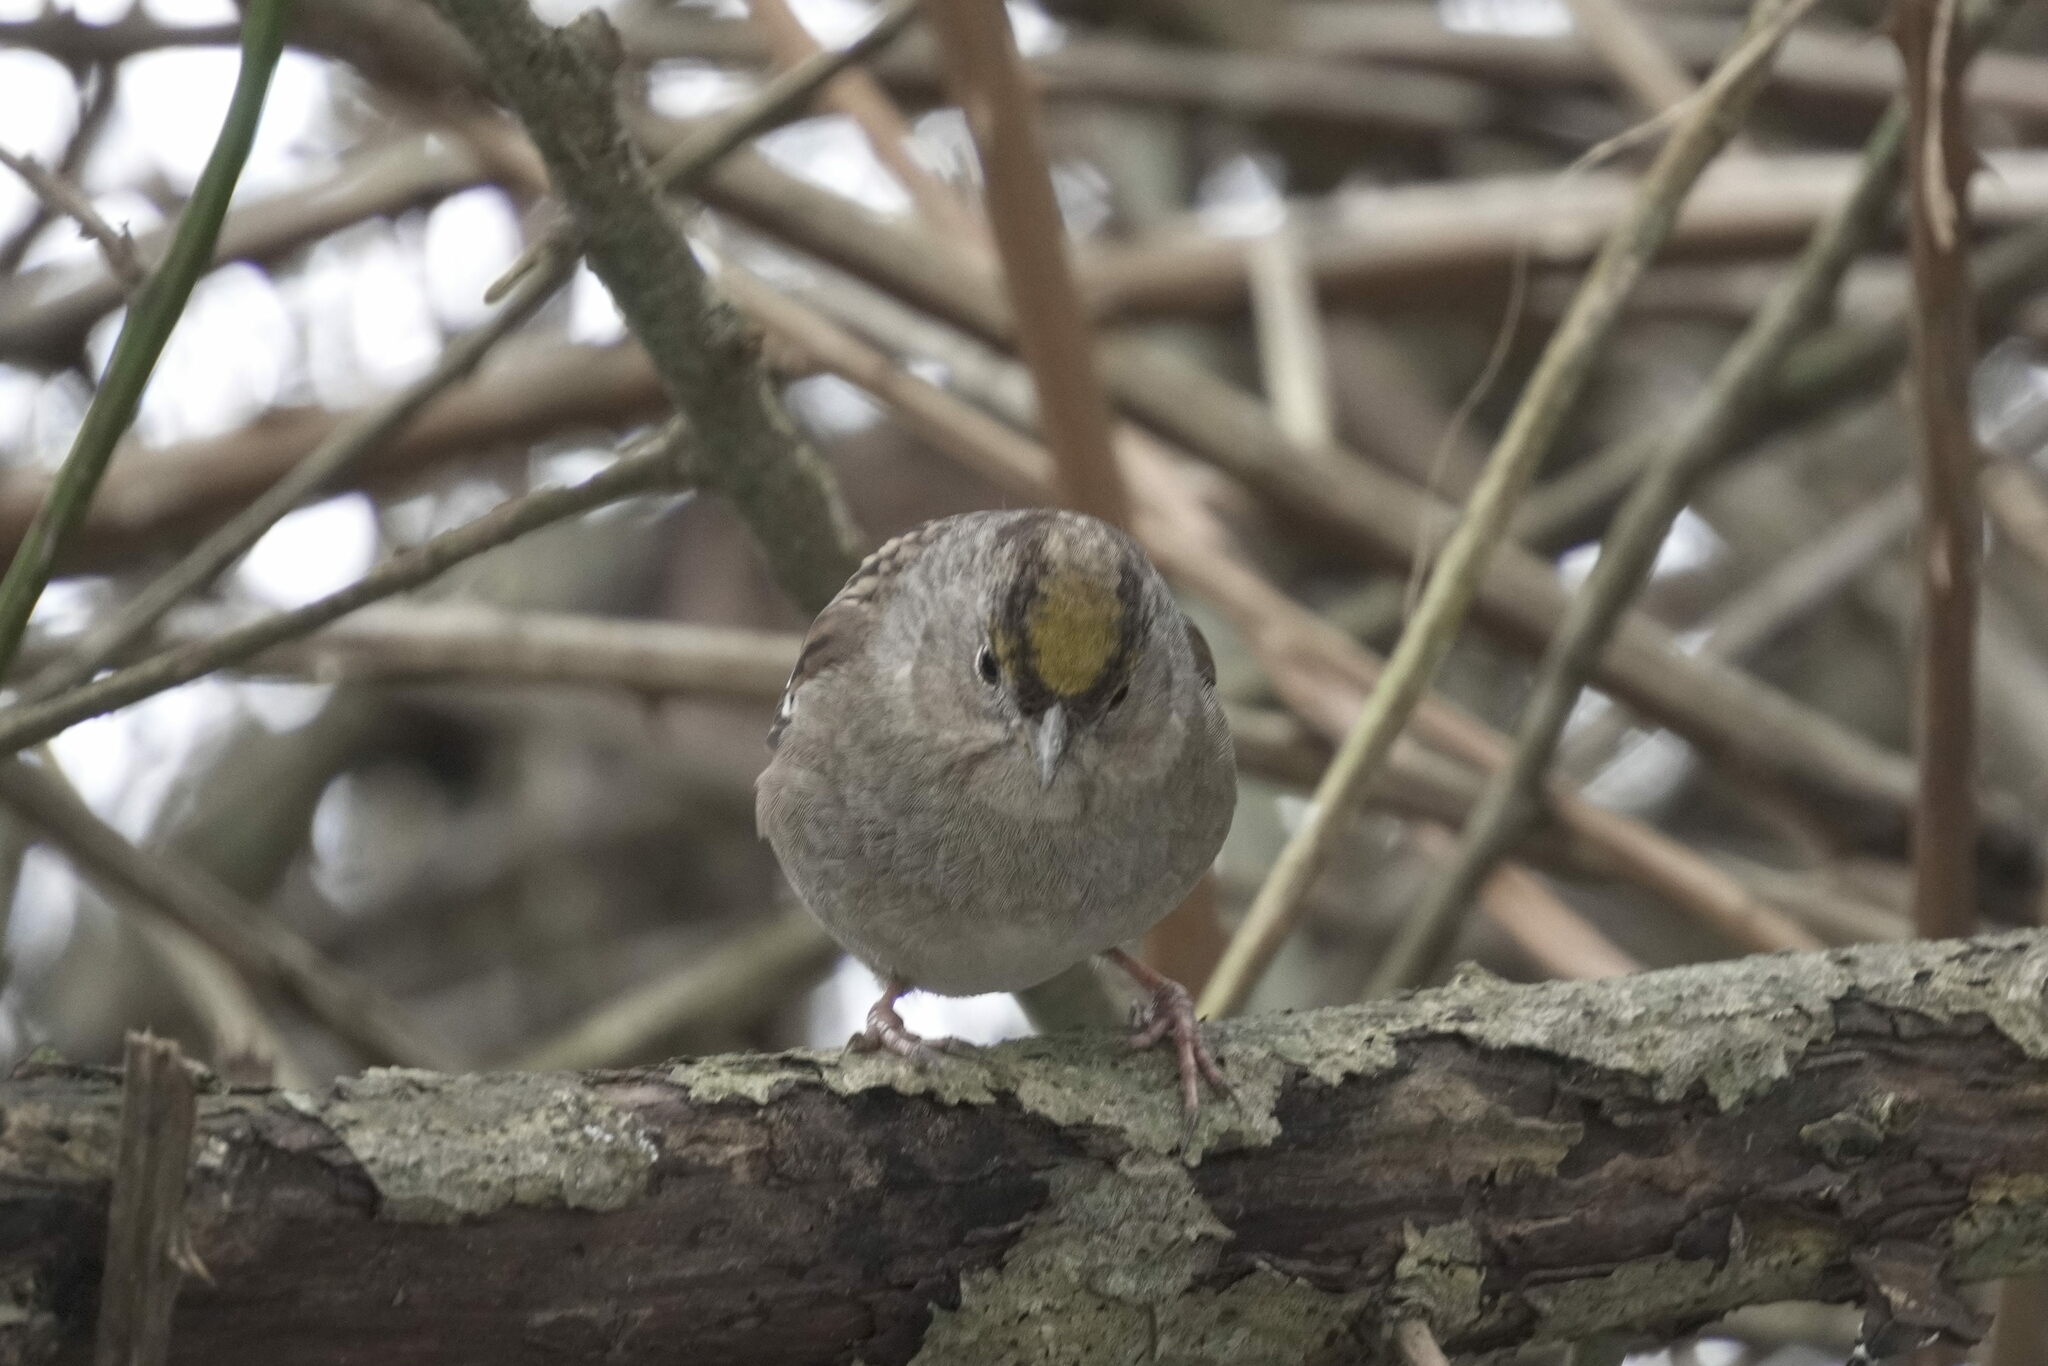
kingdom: Animalia
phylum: Chordata
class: Aves
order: Passeriformes
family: Passerellidae
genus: Zonotrichia
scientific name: Zonotrichia atricapilla
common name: Golden-crowned sparrow
